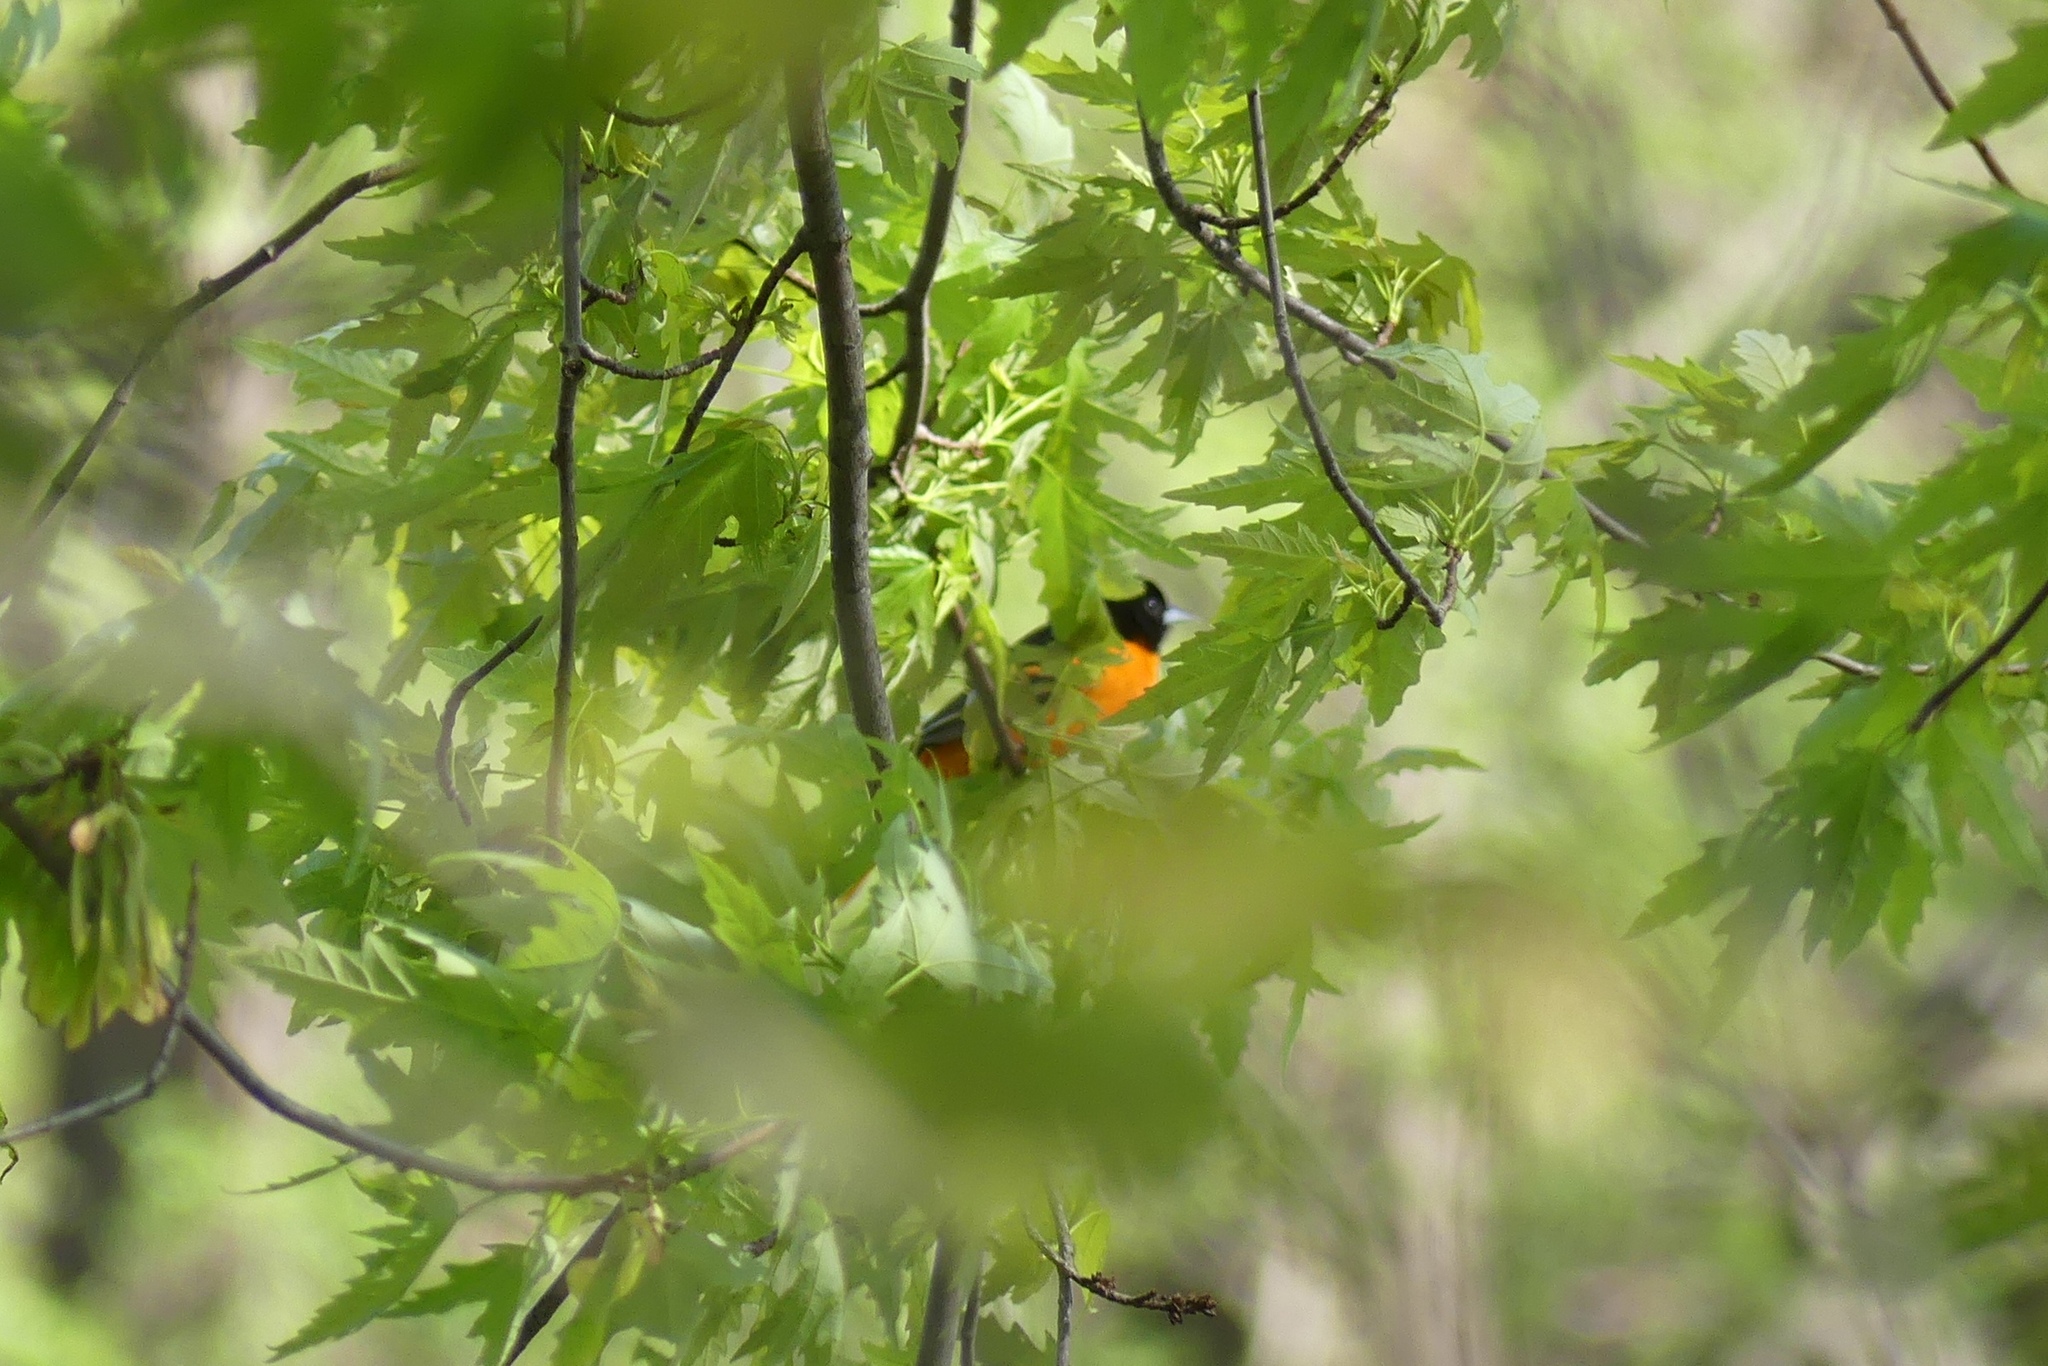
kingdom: Animalia
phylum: Chordata
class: Aves
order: Passeriformes
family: Icteridae
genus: Icterus
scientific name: Icterus galbula
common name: Baltimore oriole
